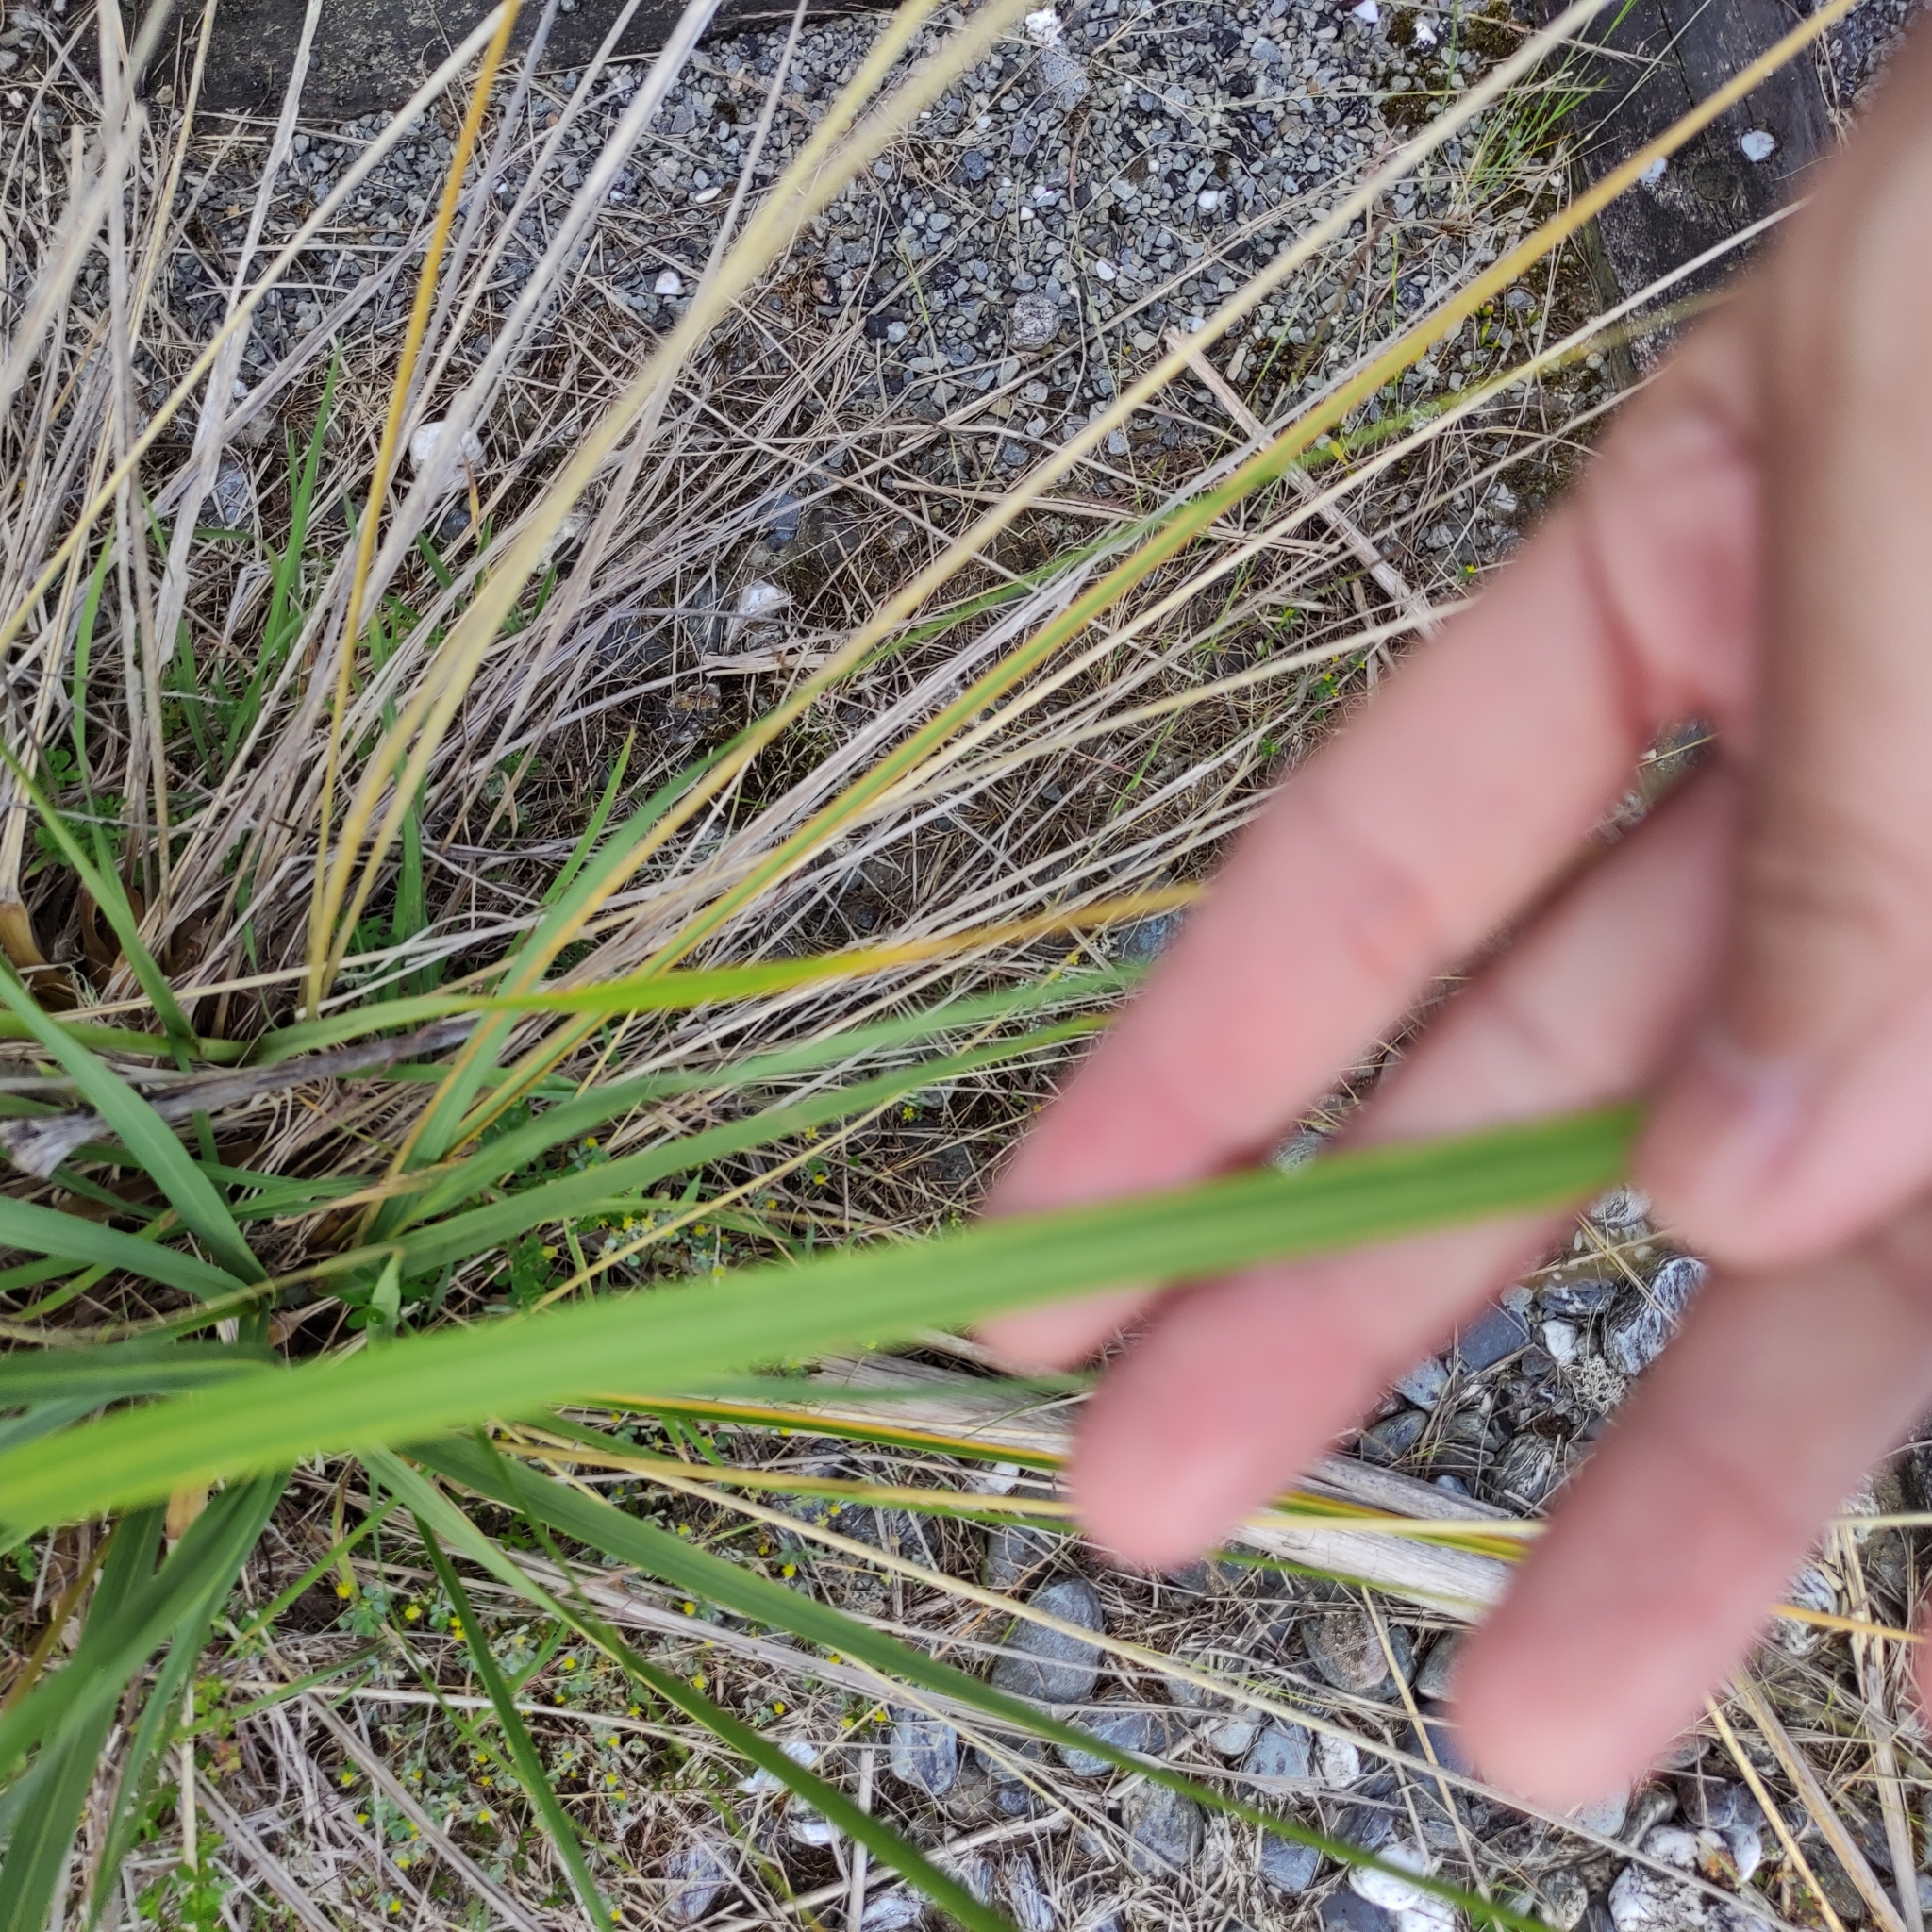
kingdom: Plantae
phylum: Tracheophyta
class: Liliopsida
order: Poales
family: Poaceae
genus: Austroderia
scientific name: Austroderia richardii
